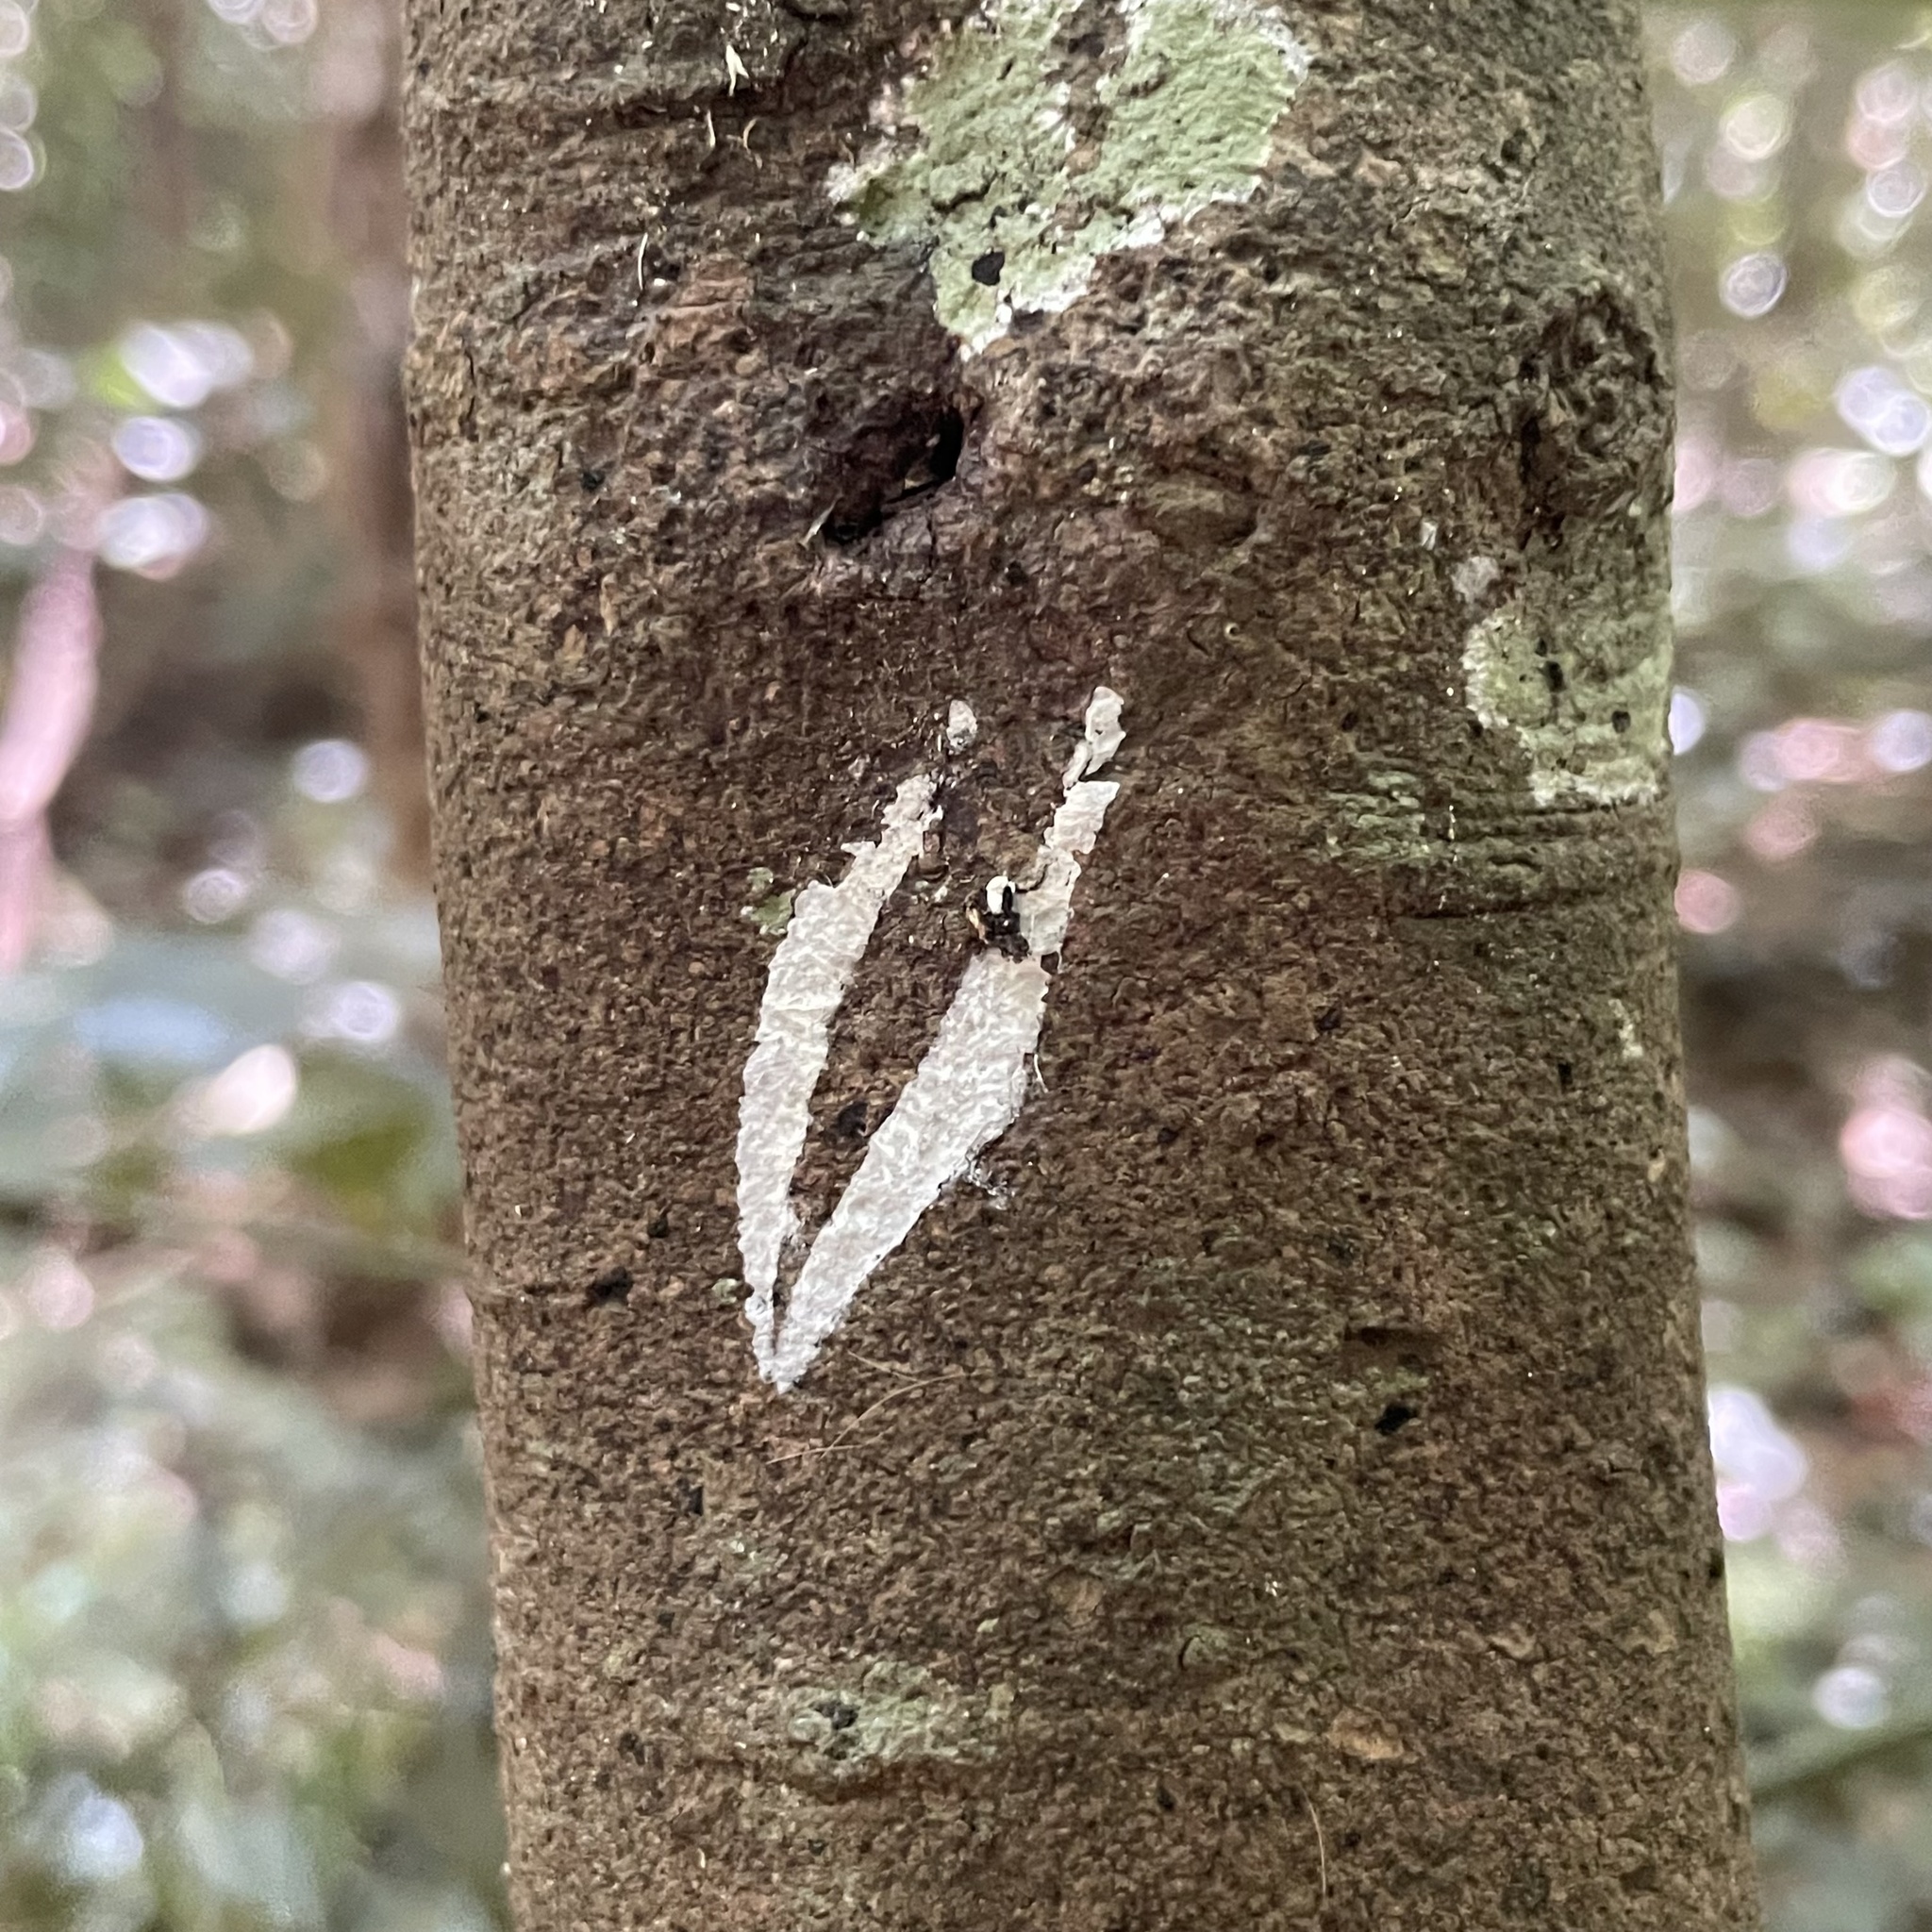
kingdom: Animalia
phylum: Mollusca
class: Gastropoda
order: Stylommatophora
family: Clausiliidae
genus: Stereophaedusa
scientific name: Stereophaedusa valida
